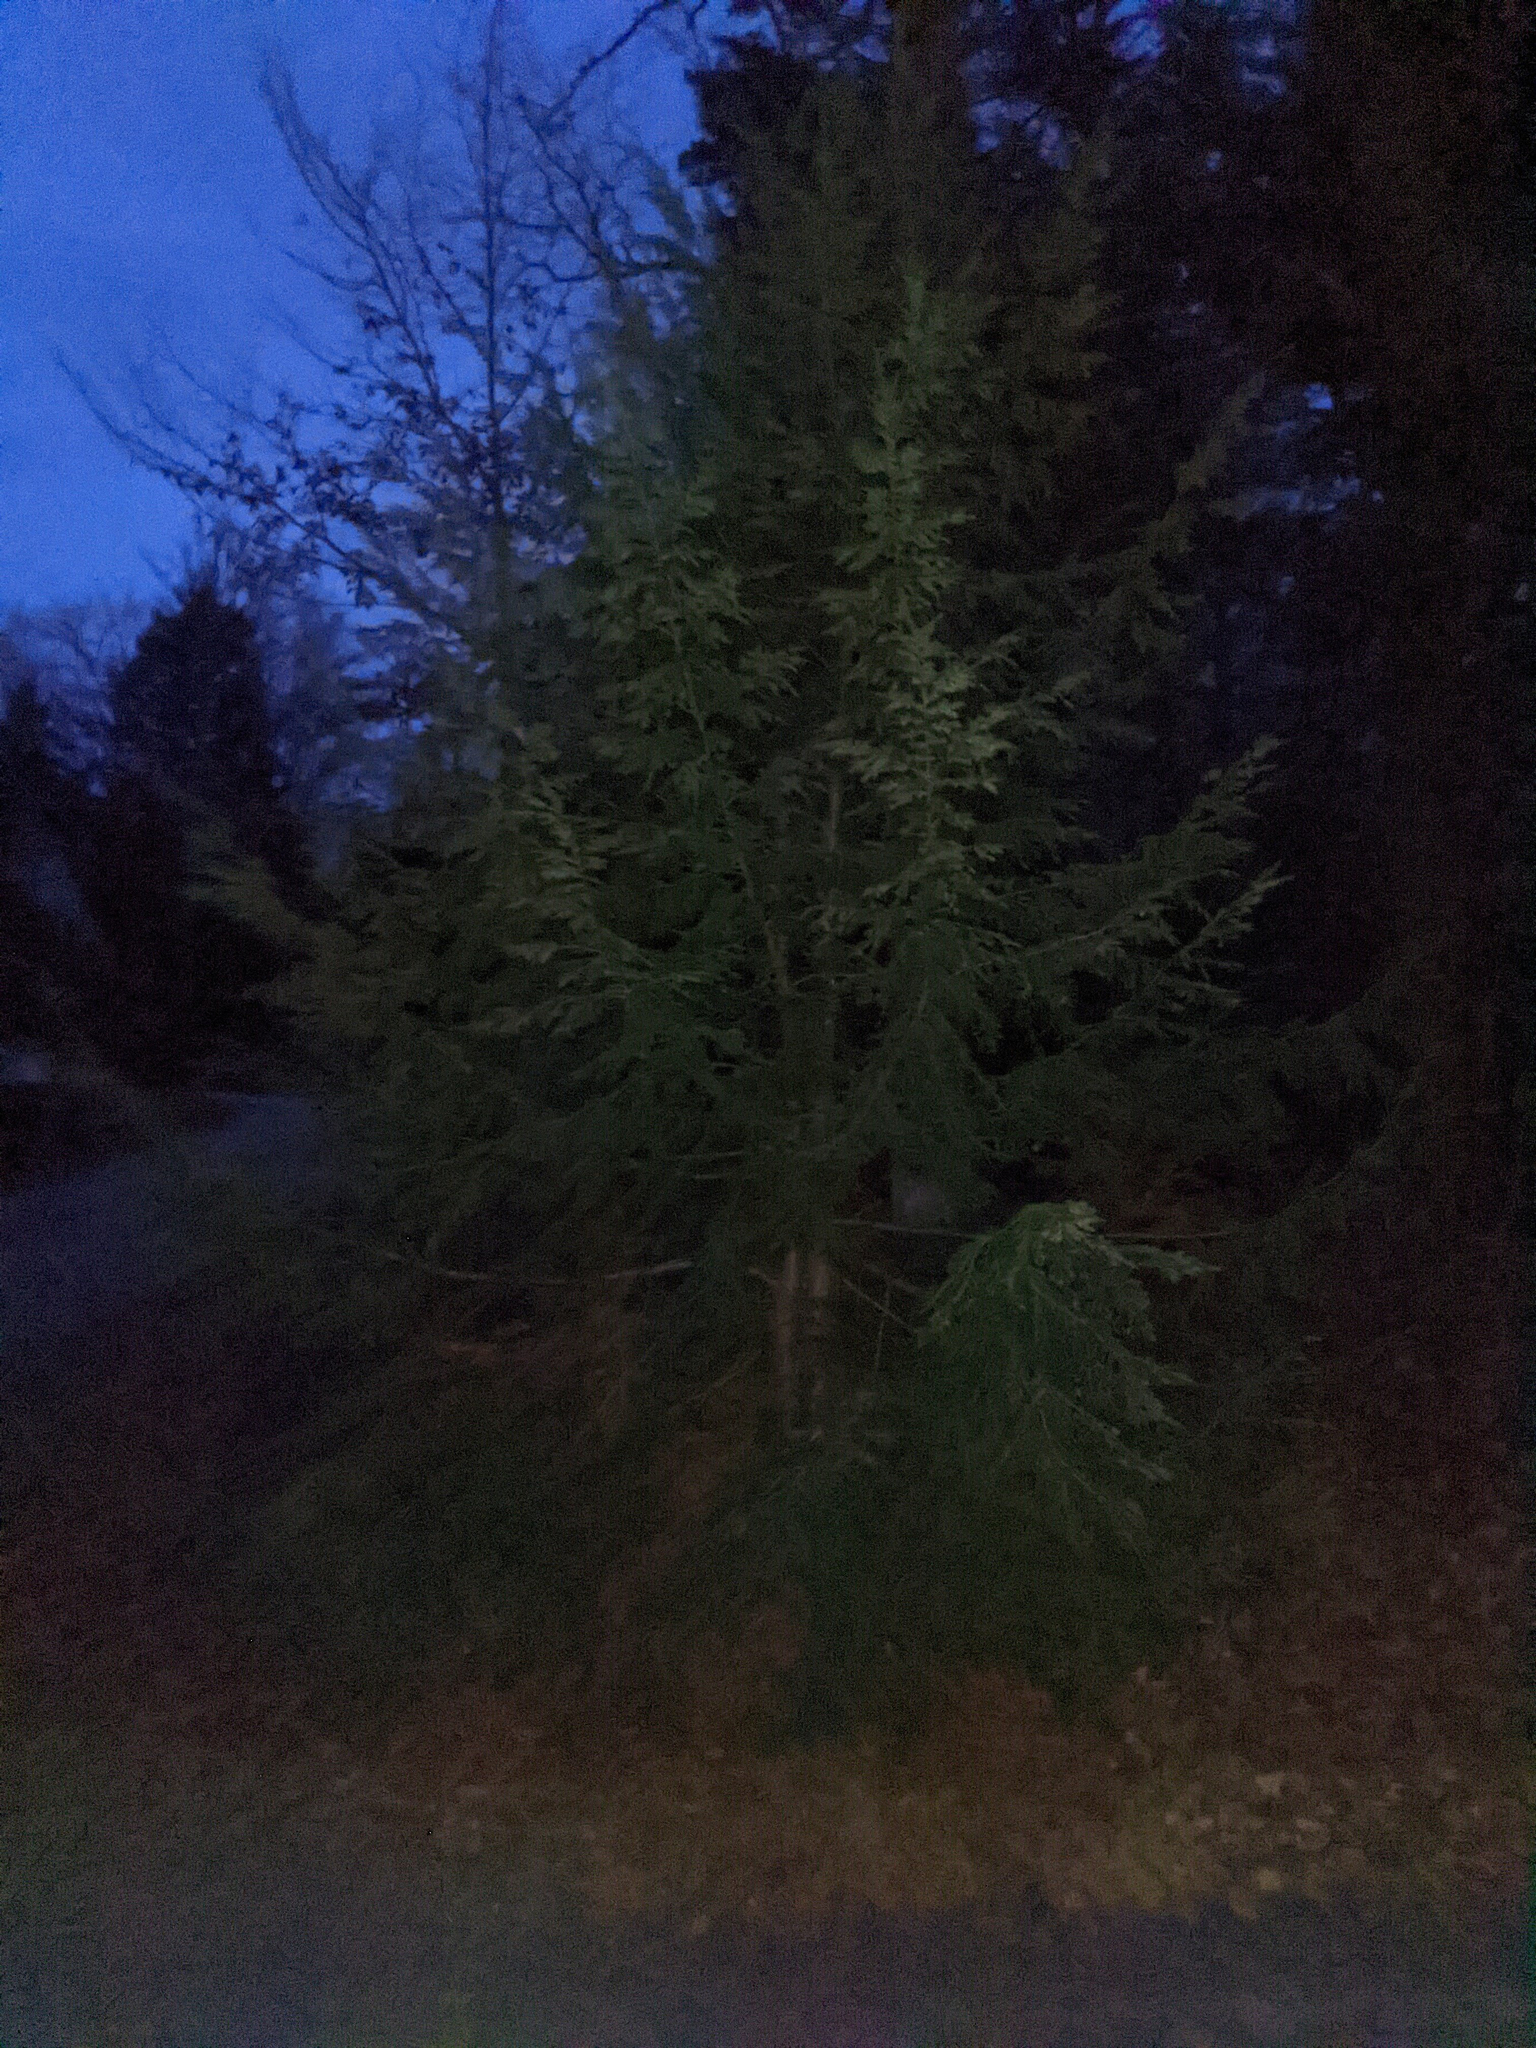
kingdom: Plantae
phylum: Tracheophyta
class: Pinopsida
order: Pinales
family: Pinaceae
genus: Tsuga
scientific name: Tsuga canadensis
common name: Eastern hemlock
